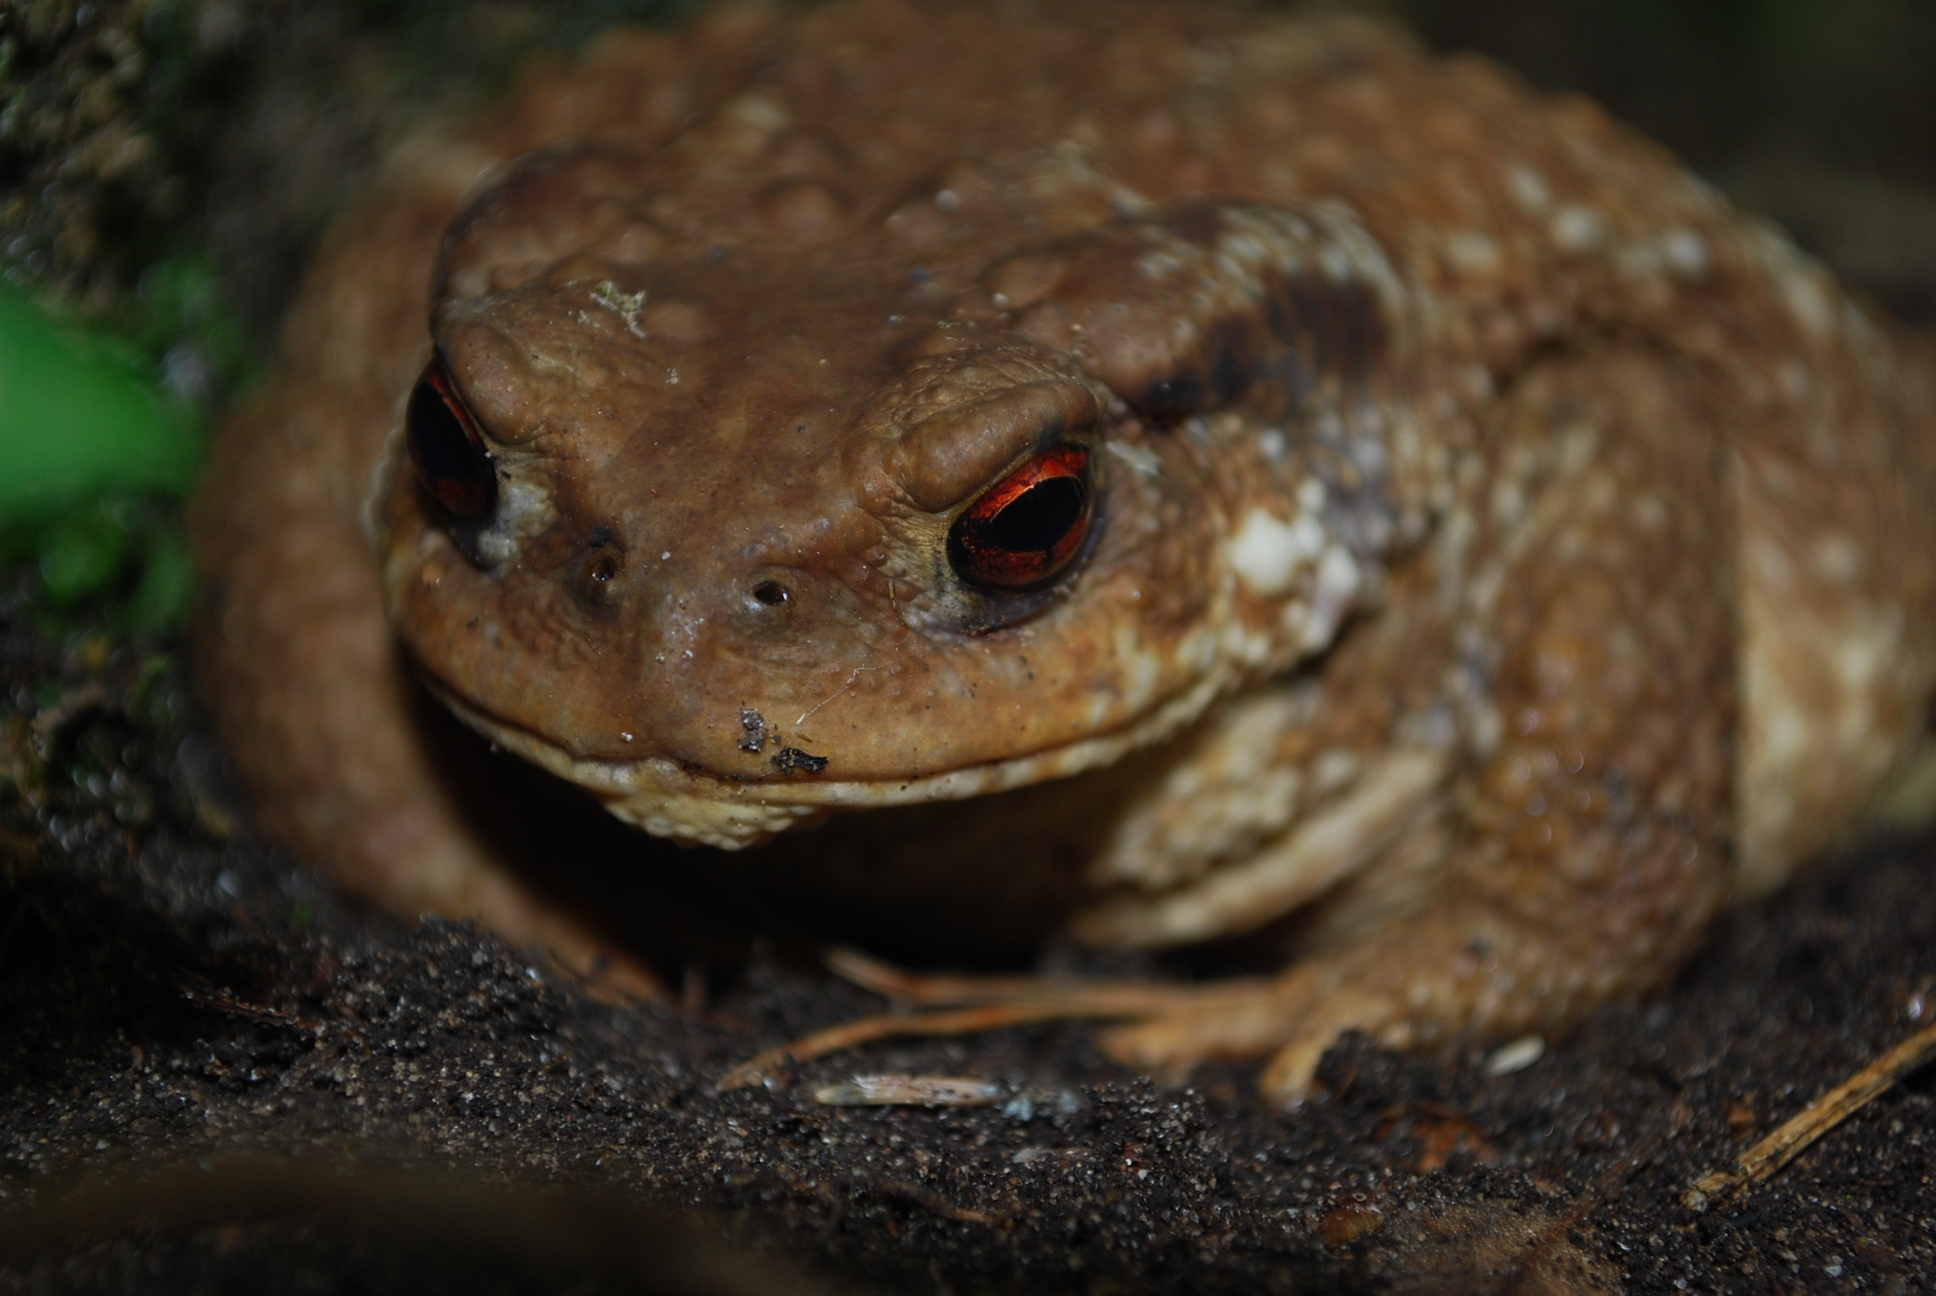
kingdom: Animalia
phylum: Chordata
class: Amphibia
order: Anura
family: Bufonidae
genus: Bufo
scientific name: Bufo spinosus
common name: Western common toad
